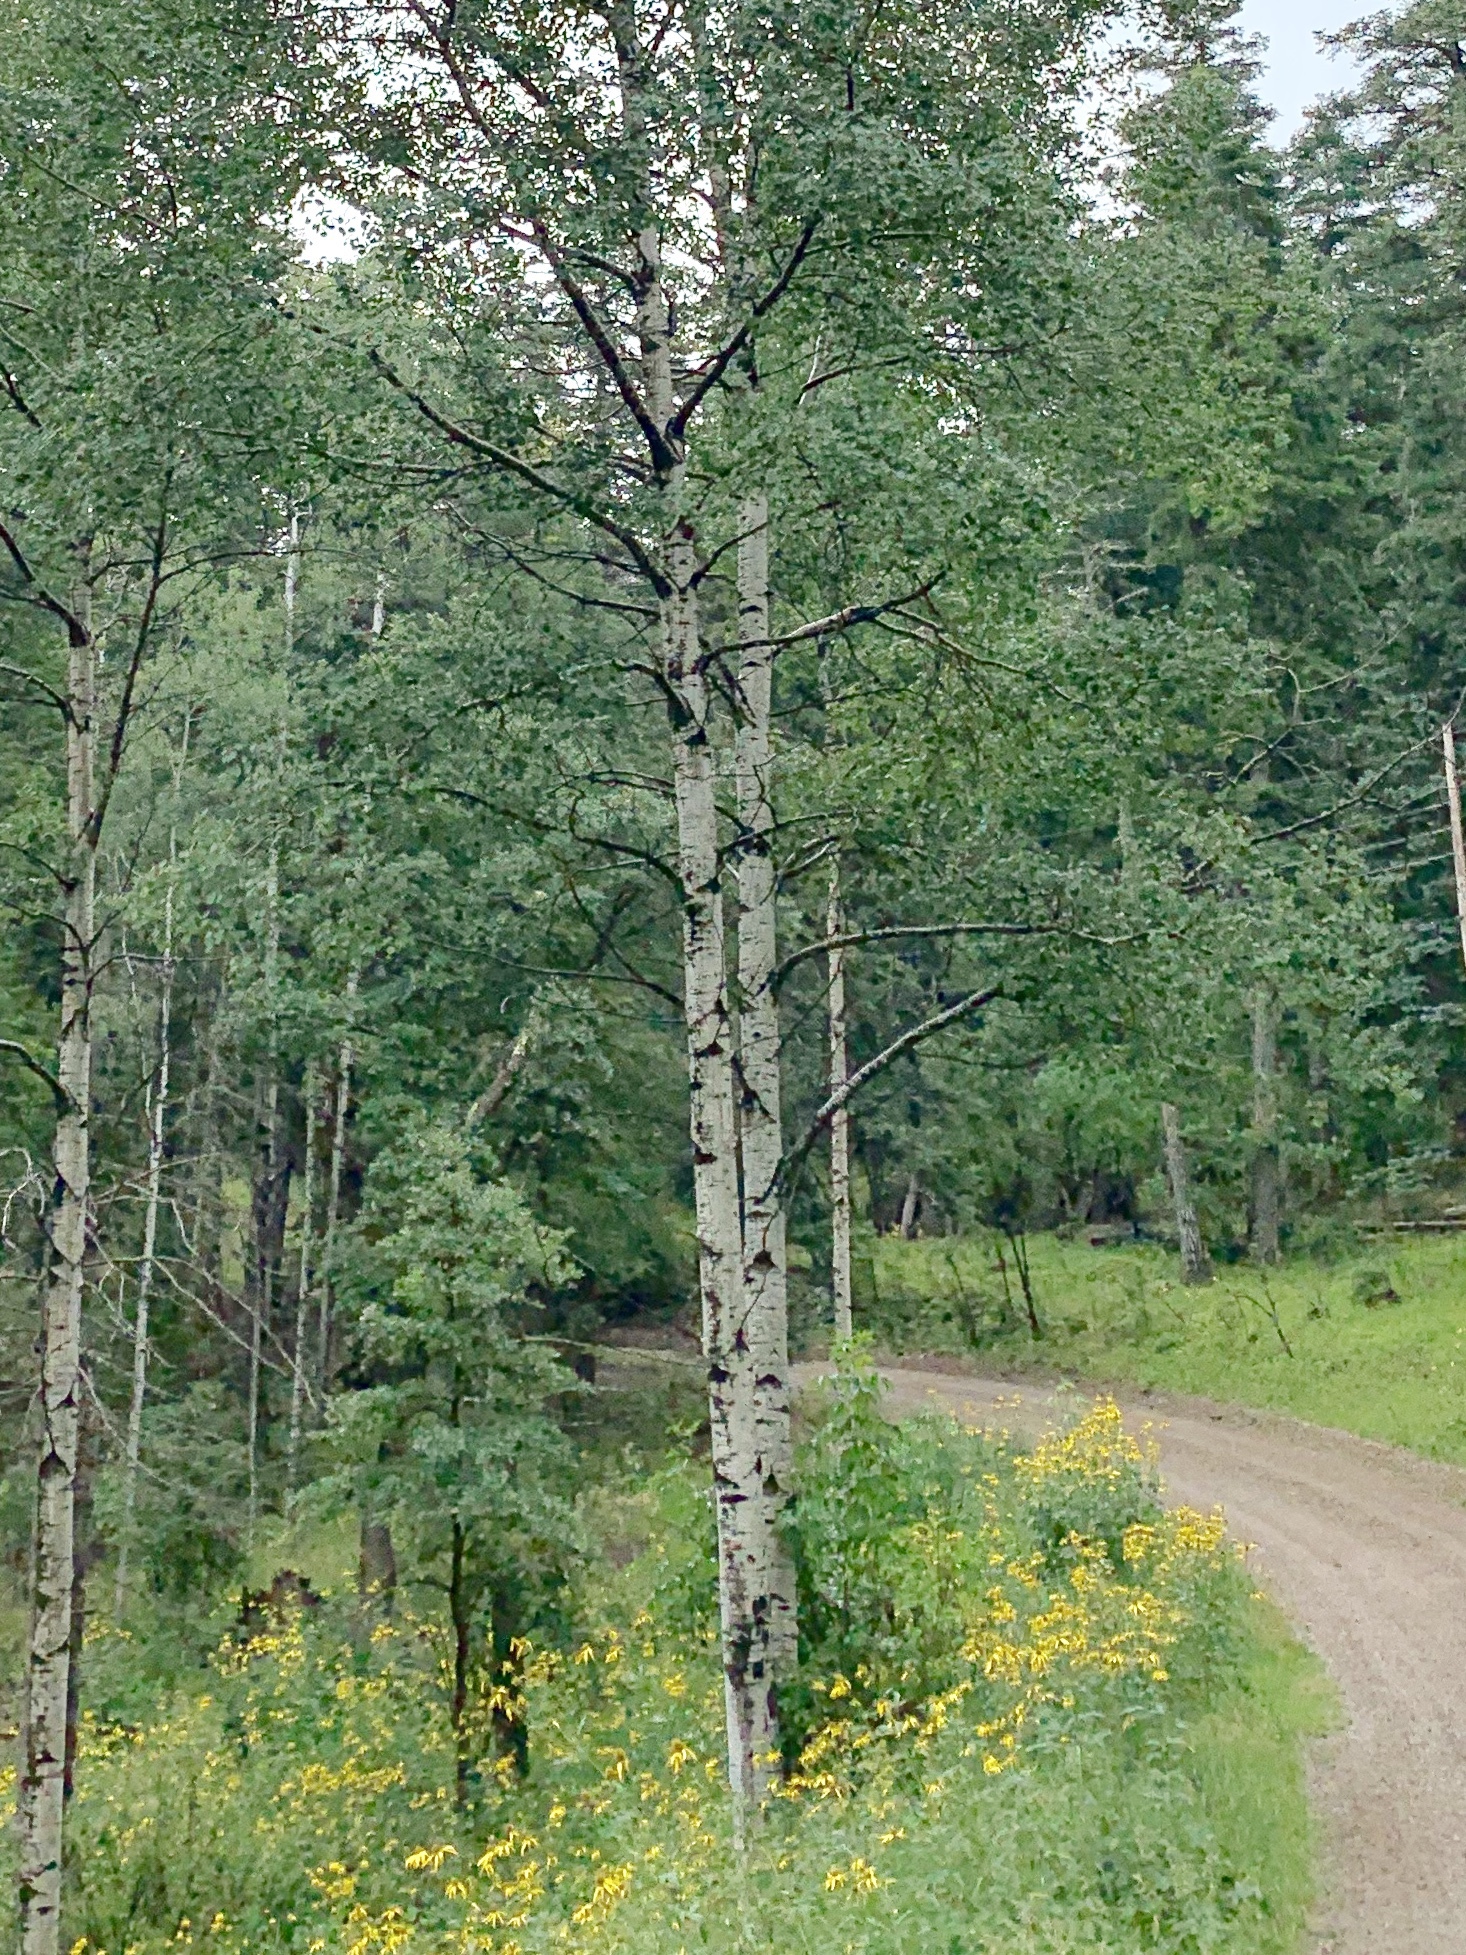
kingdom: Plantae
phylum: Tracheophyta
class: Magnoliopsida
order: Malpighiales
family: Salicaceae
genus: Populus
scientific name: Populus tremuloides
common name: Quaking aspen
